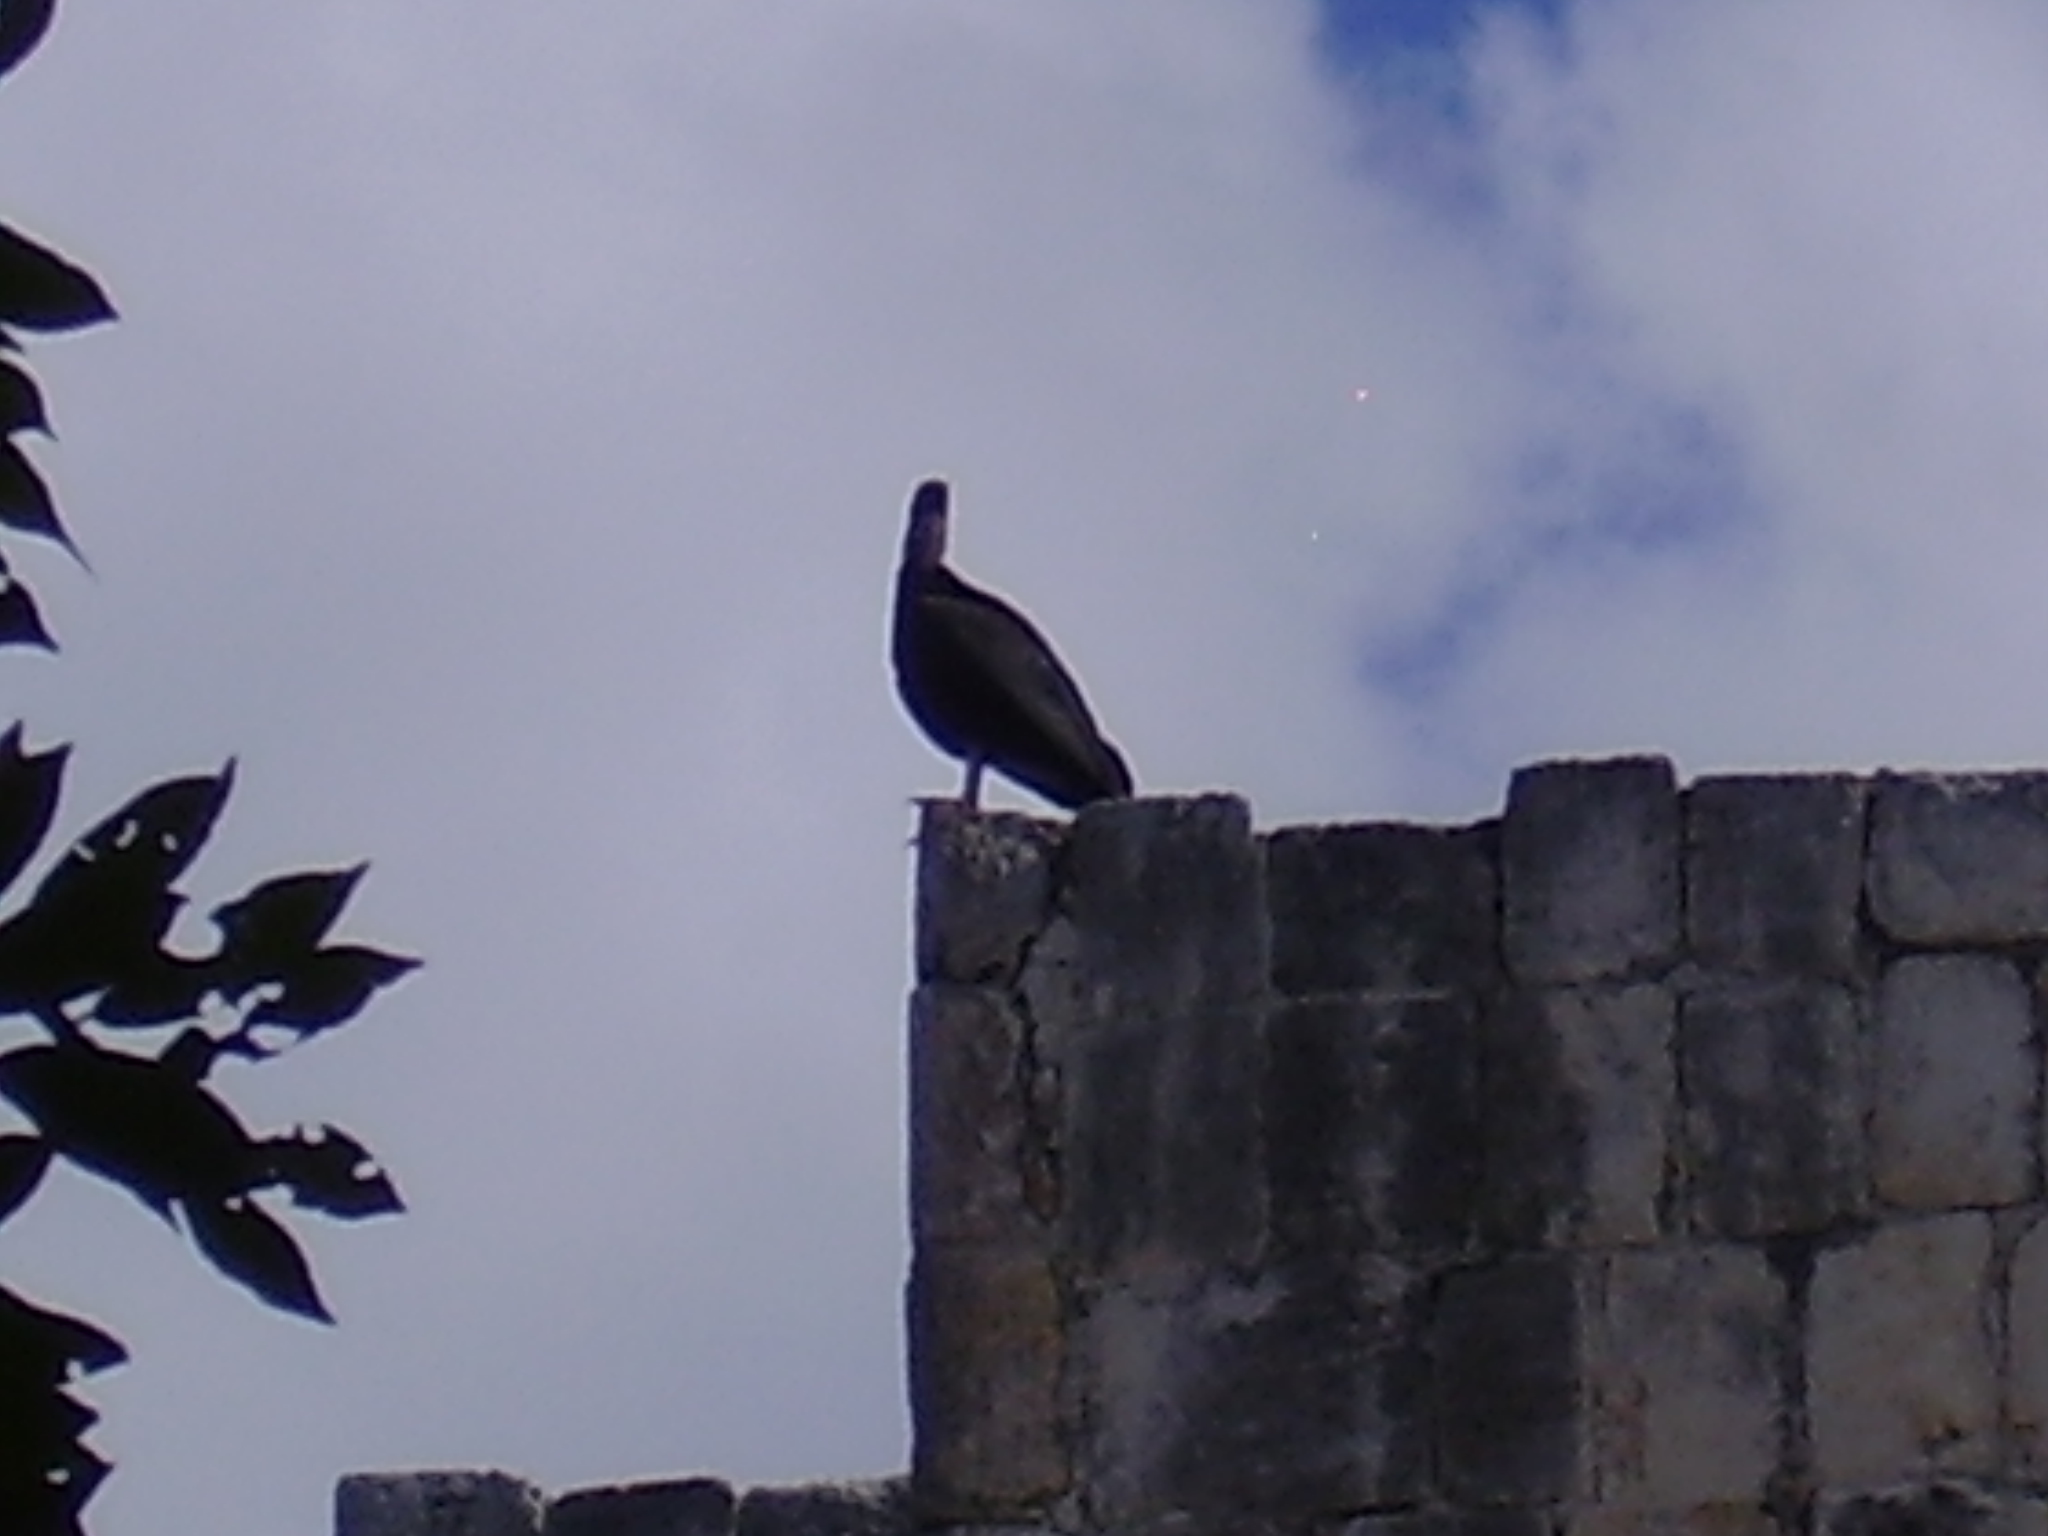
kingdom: Animalia
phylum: Chordata
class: Aves
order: Accipitriformes
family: Cathartidae
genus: Coragyps
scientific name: Coragyps atratus
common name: Black vulture
